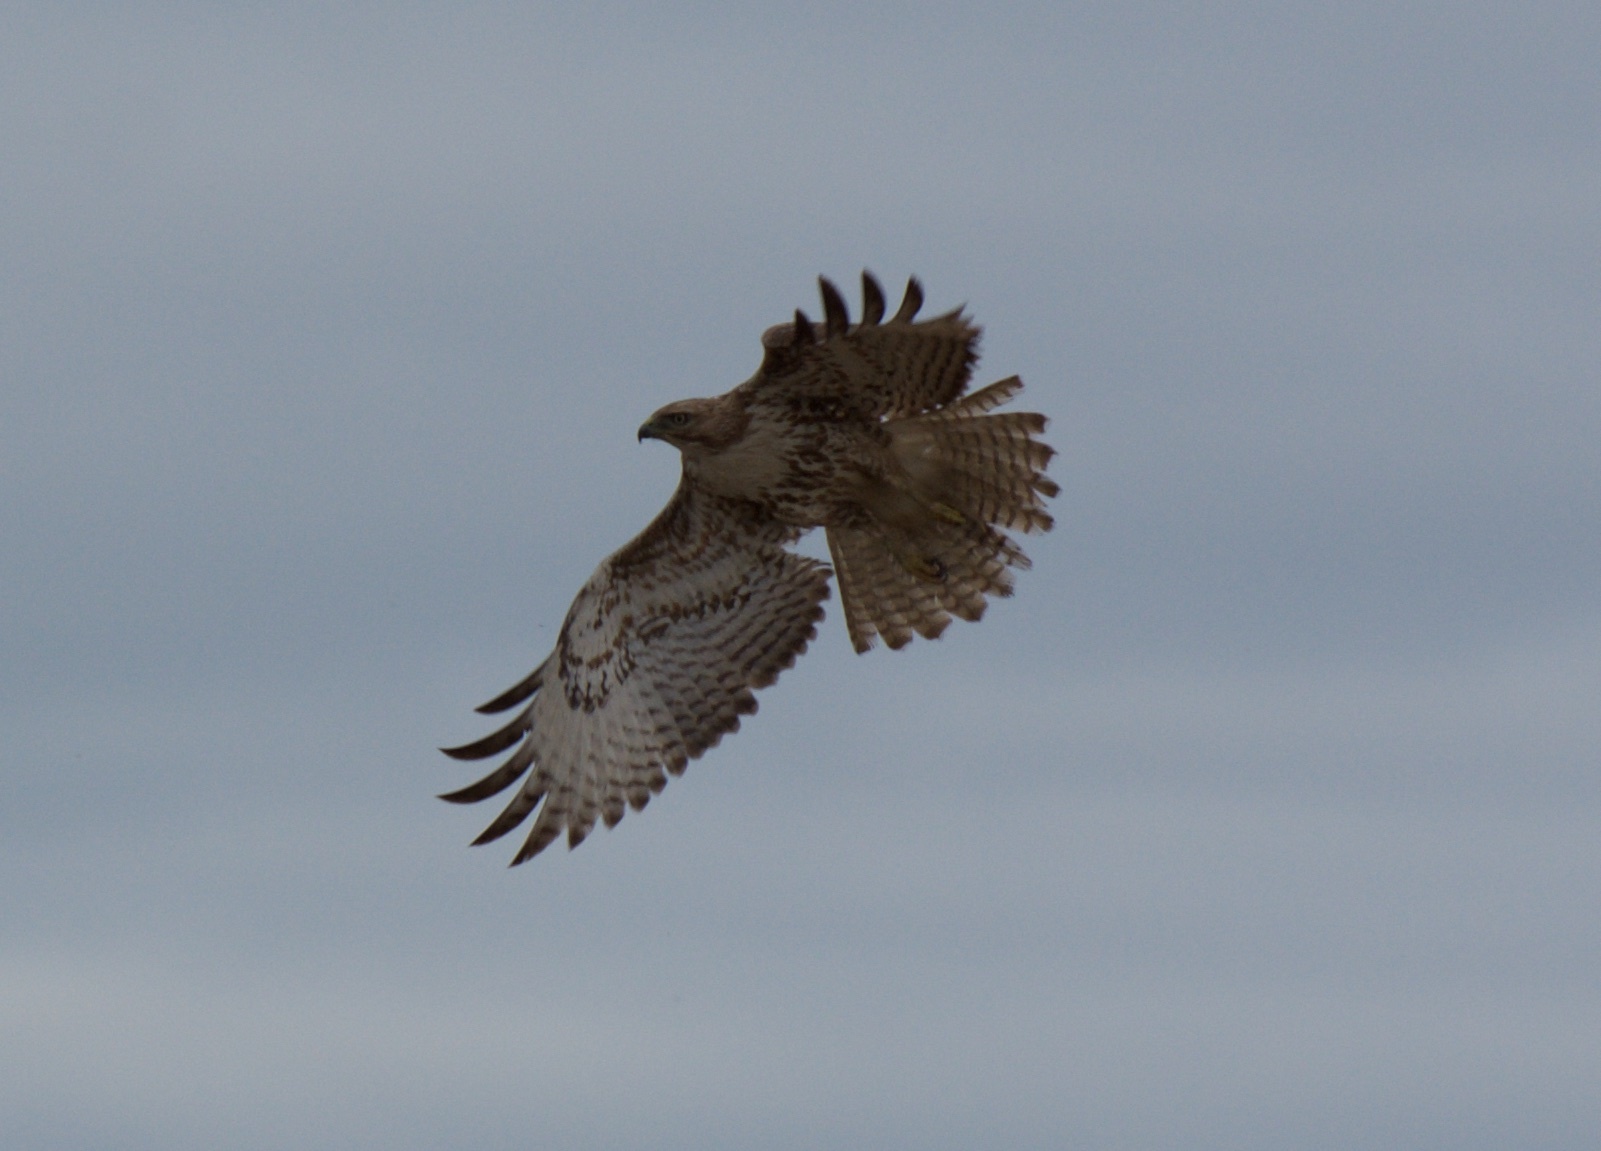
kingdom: Animalia
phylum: Chordata
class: Aves
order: Accipitriformes
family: Accipitridae
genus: Buteo
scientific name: Buteo jamaicensis
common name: Red-tailed hawk
